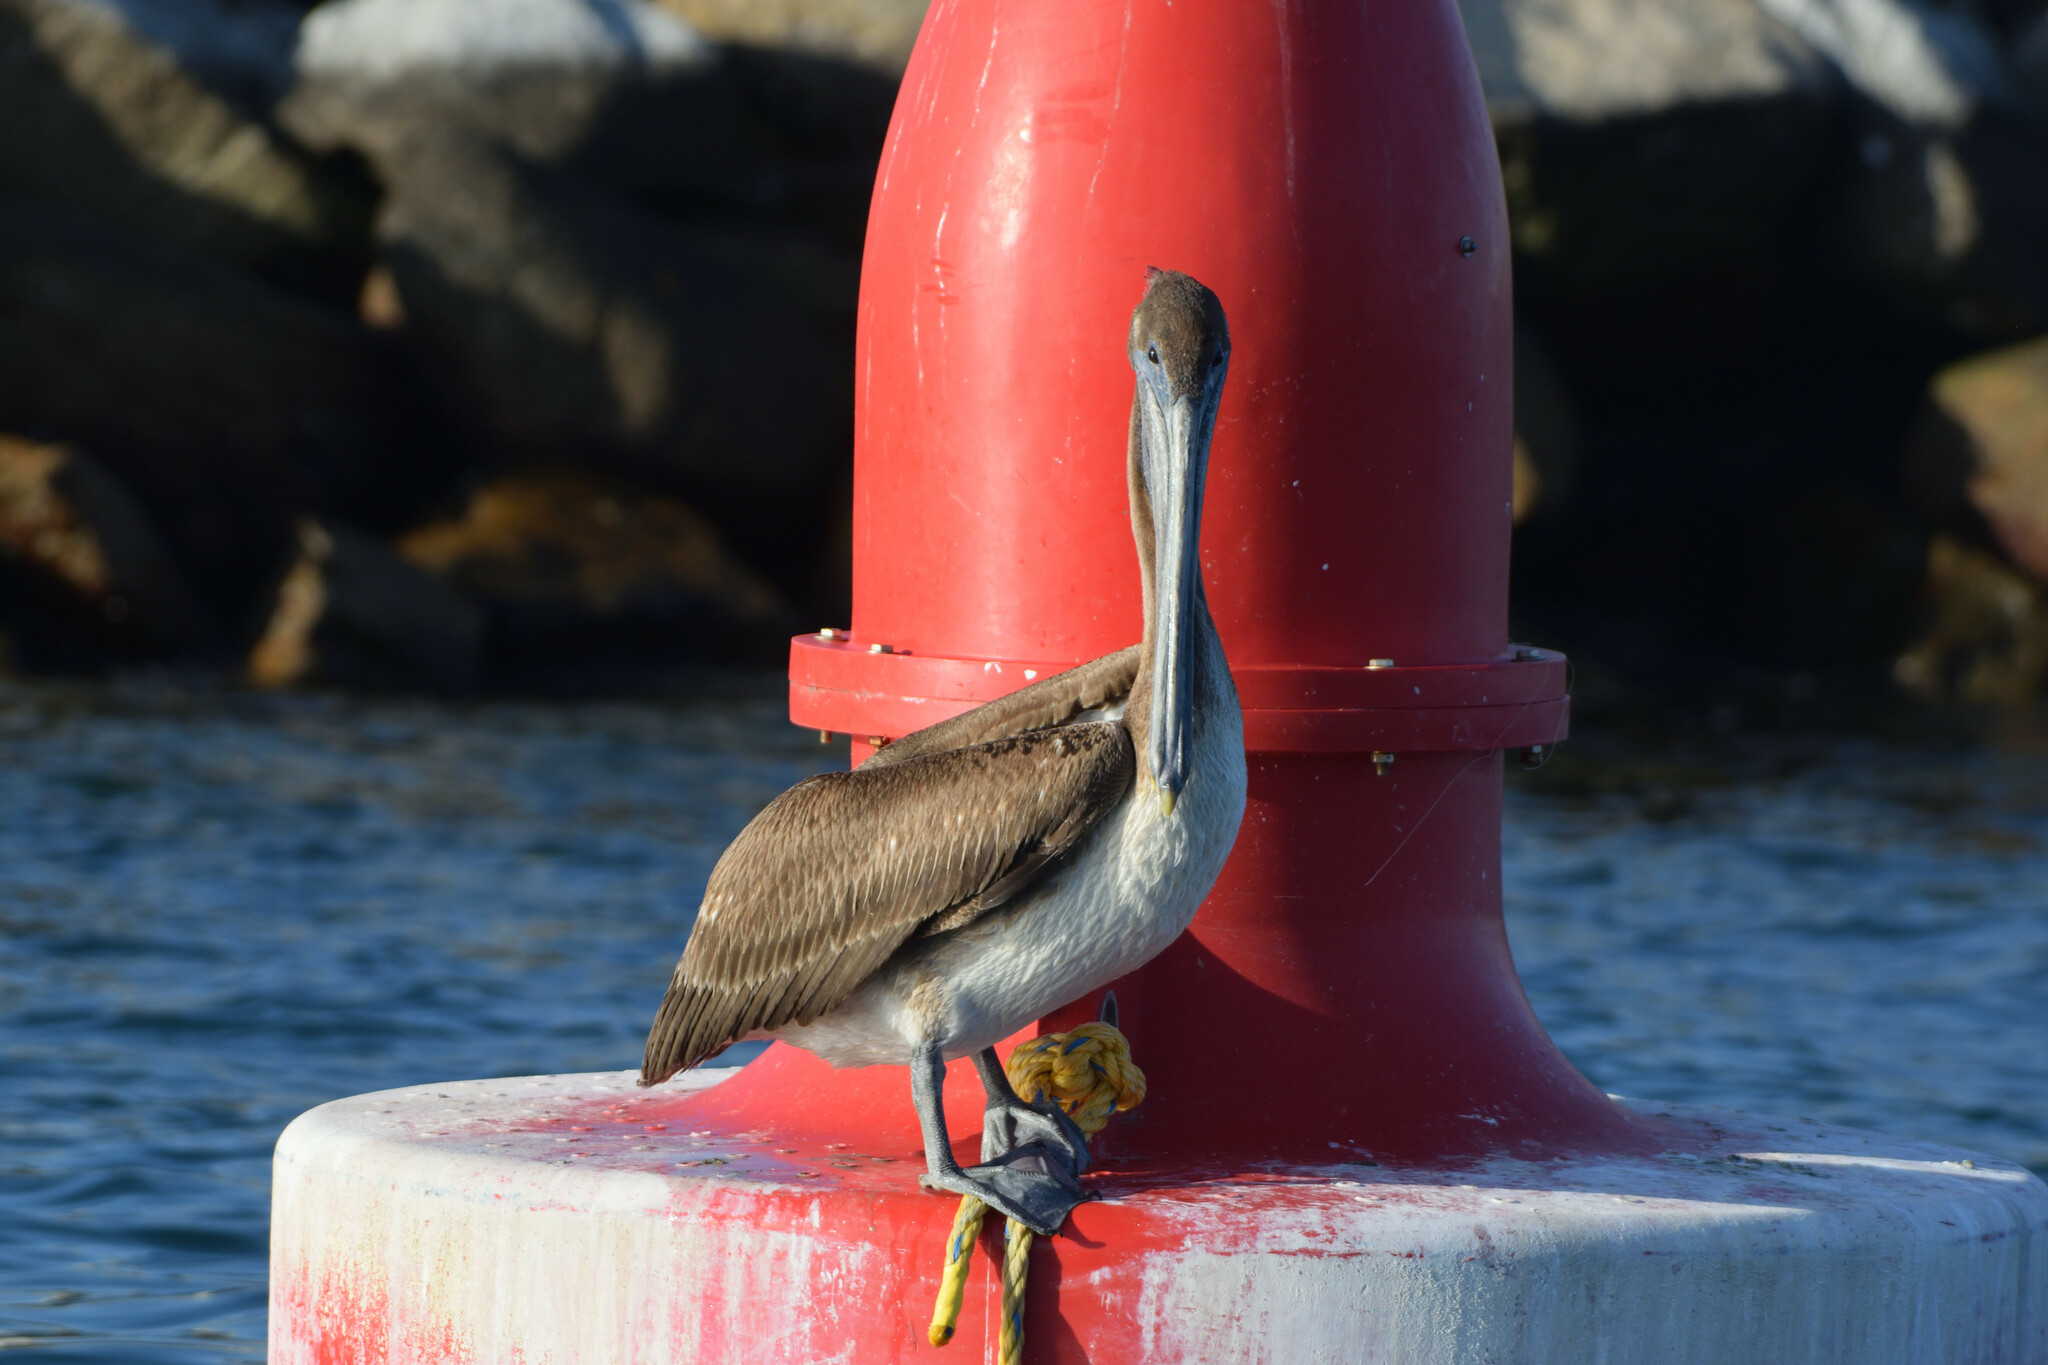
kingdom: Animalia
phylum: Chordata
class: Aves
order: Pelecaniformes
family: Pelecanidae
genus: Pelecanus
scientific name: Pelecanus occidentalis
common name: Brown pelican
